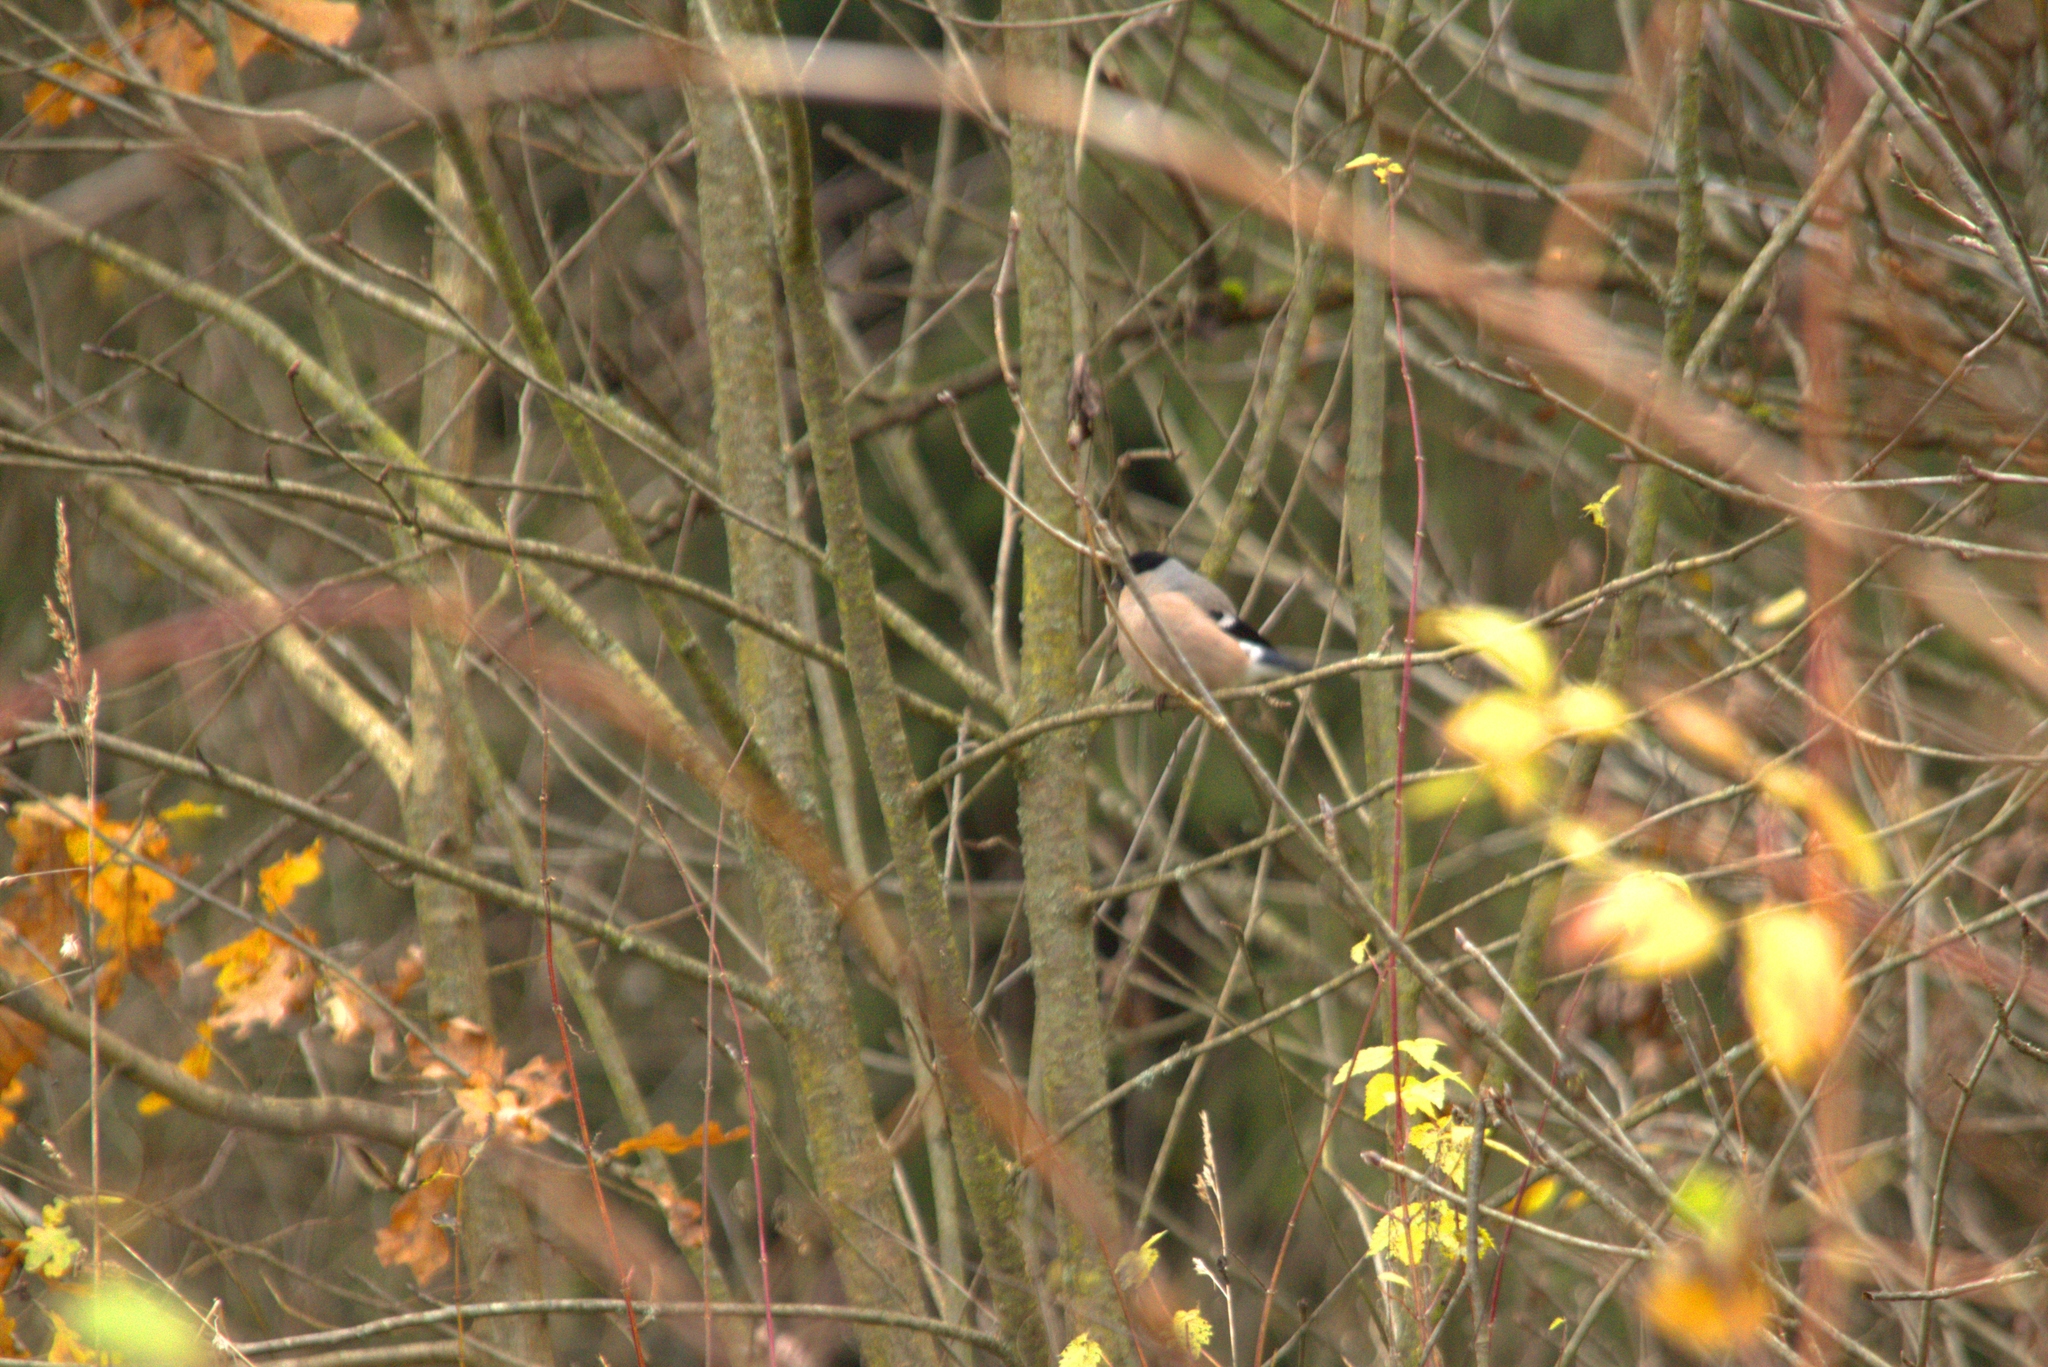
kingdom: Animalia
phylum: Chordata
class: Aves
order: Passeriformes
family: Fringillidae
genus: Pyrrhula
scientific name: Pyrrhula pyrrhula
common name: Eurasian bullfinch
